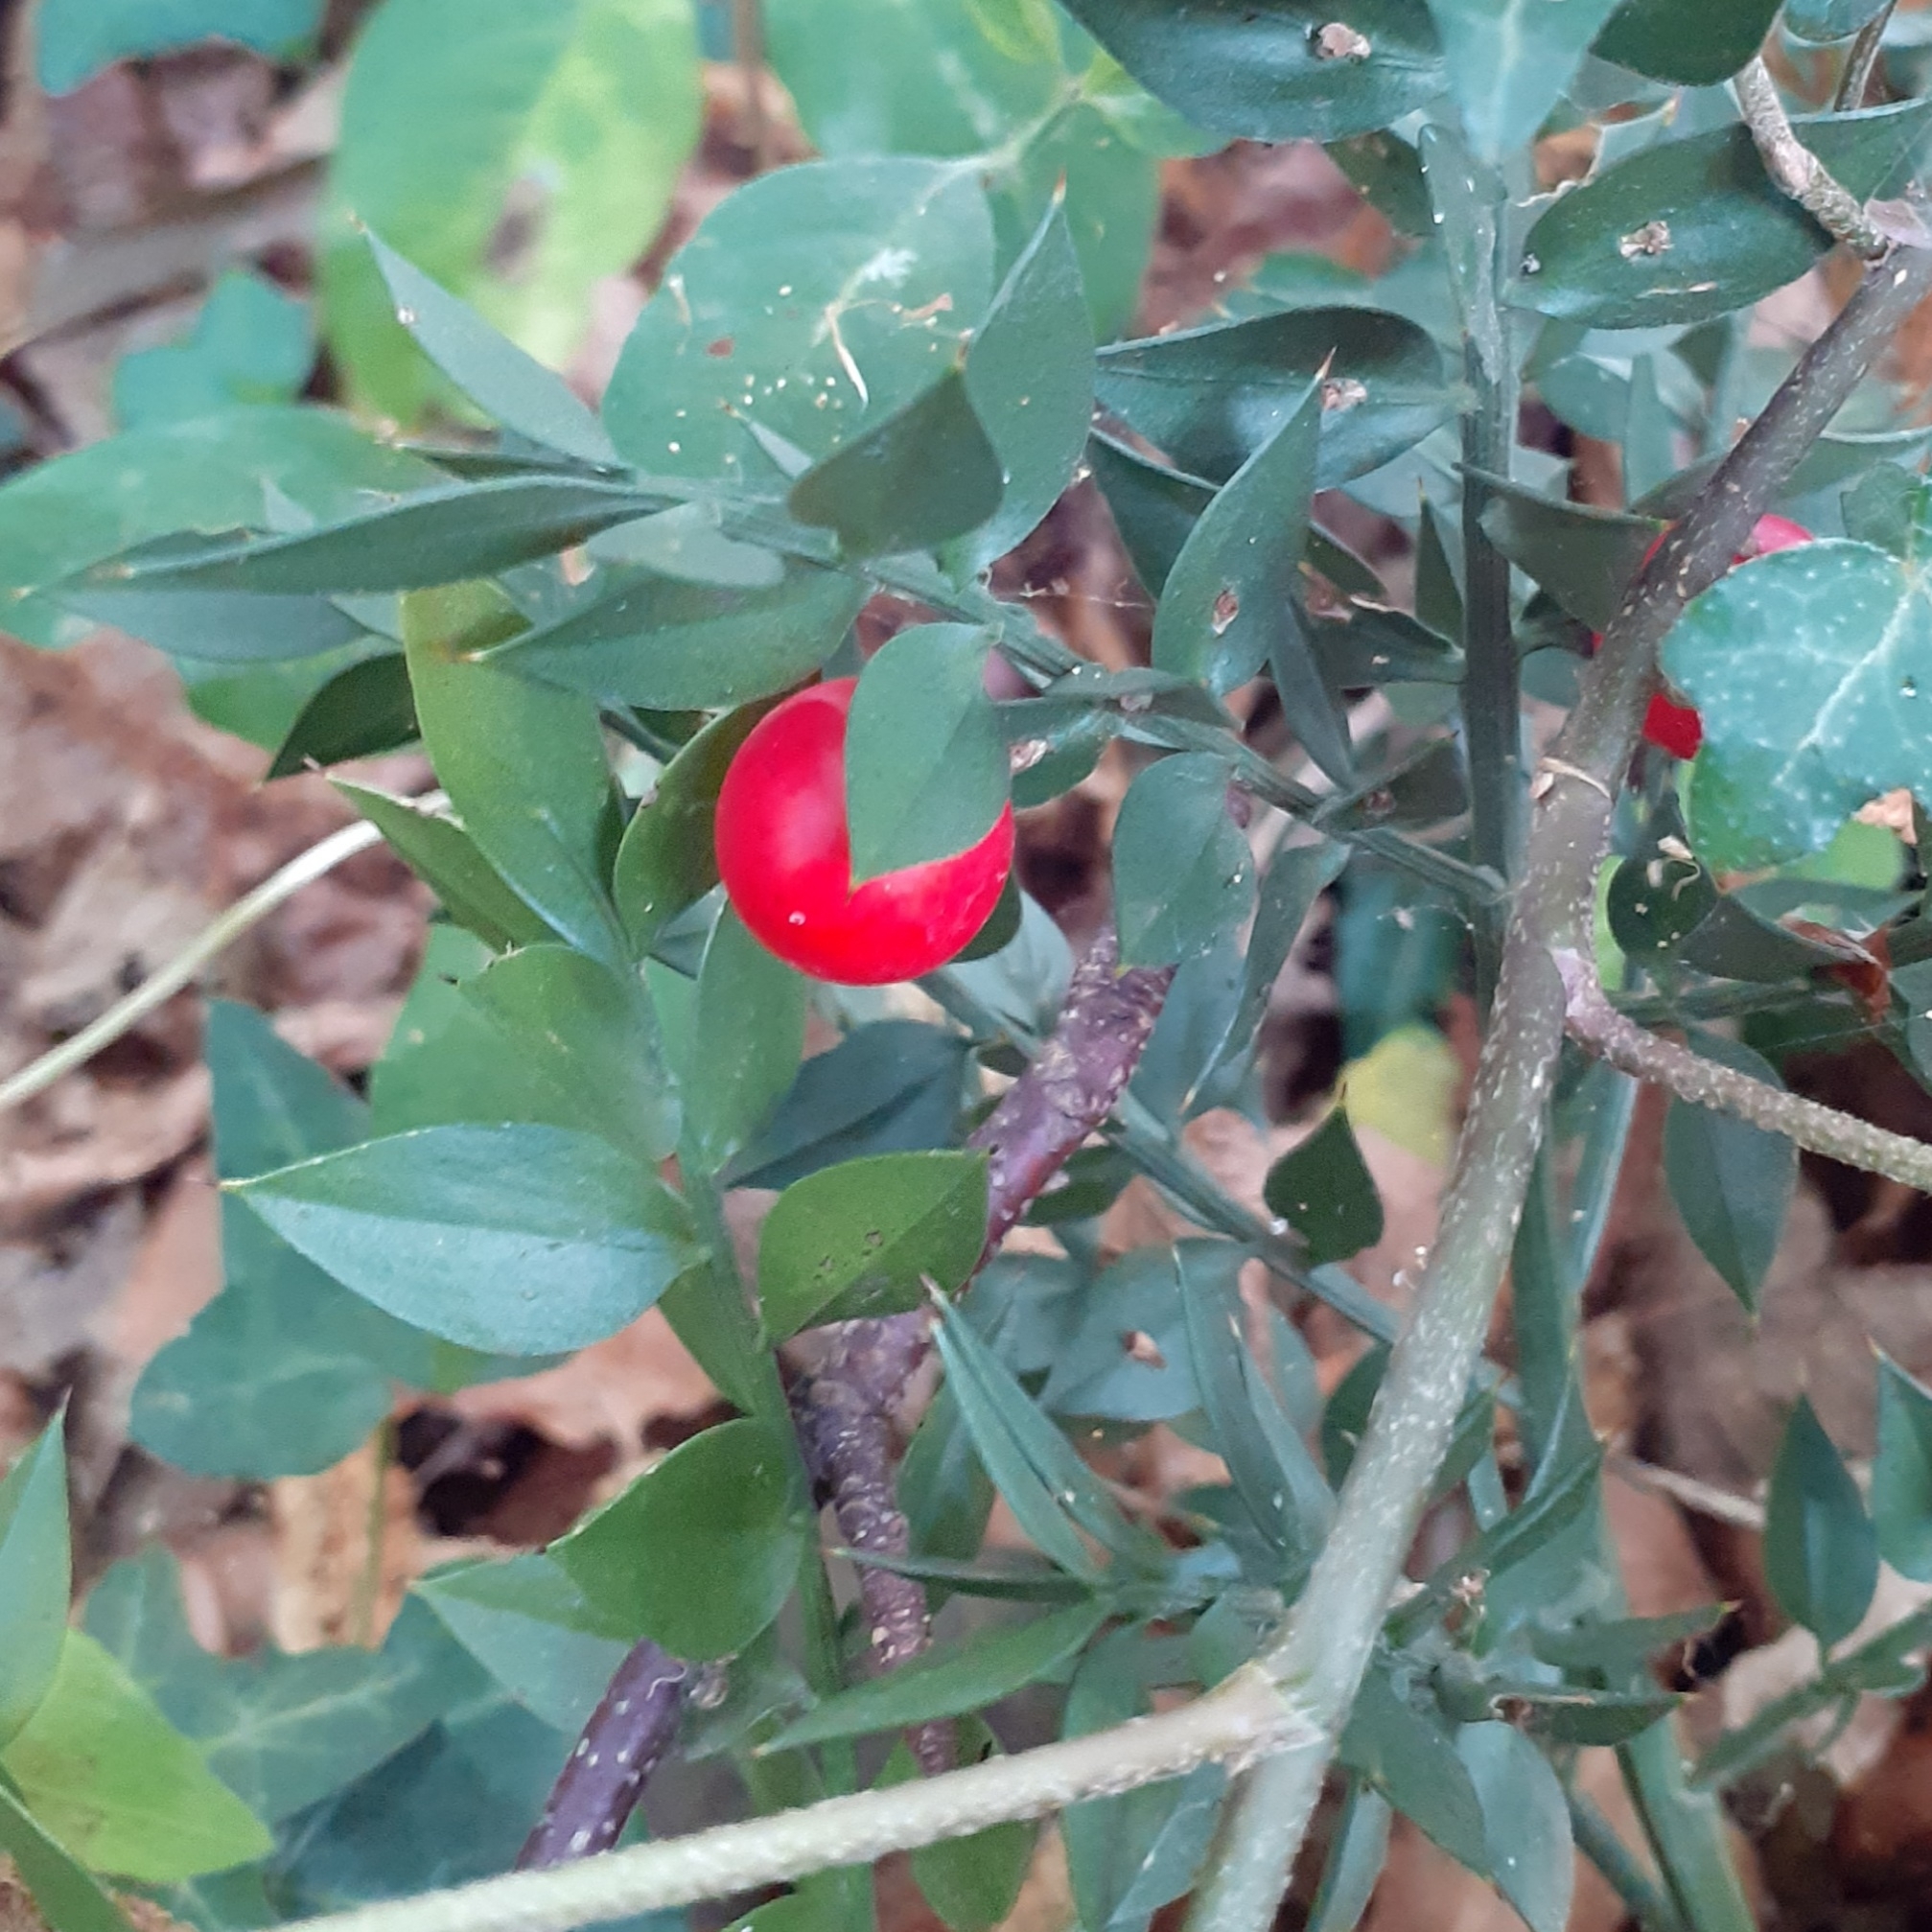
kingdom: Plantae
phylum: Tracheophyta
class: Liliopsida
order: Asparagales
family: Asparagaceae
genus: Ruscus
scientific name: Ruscus aculeatus
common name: Butcher's-broom
